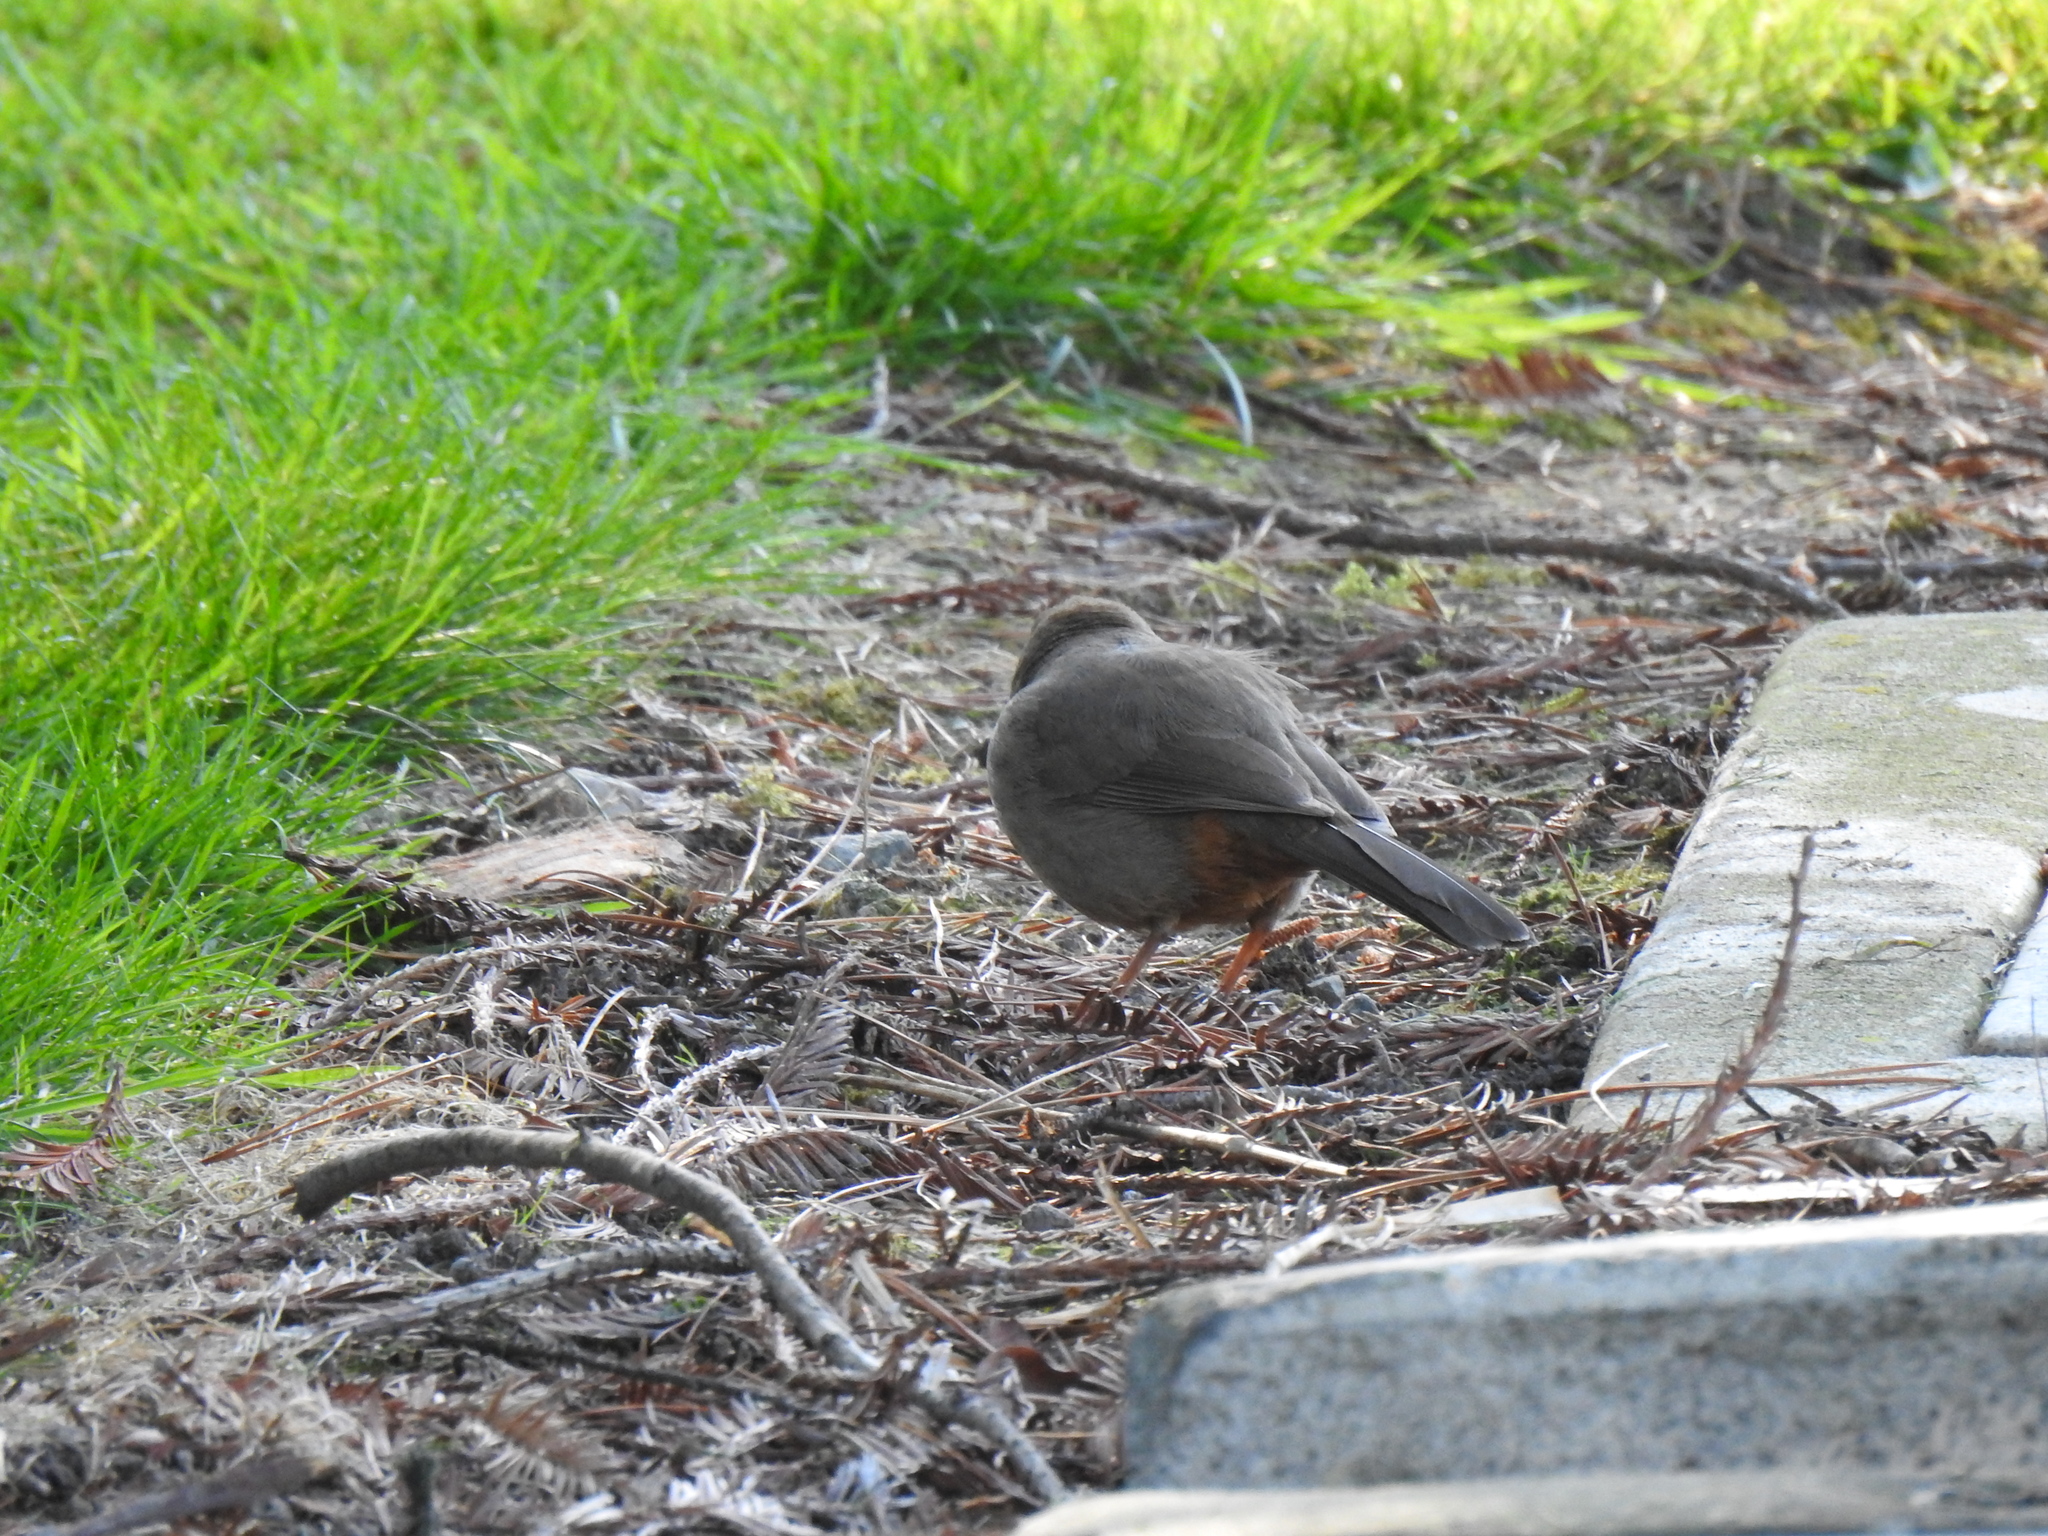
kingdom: Animalia
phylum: Chordata
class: Aves
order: Passeriformes
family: Passerellidae
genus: Melozone
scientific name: Melozone crissalis
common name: California towhee
